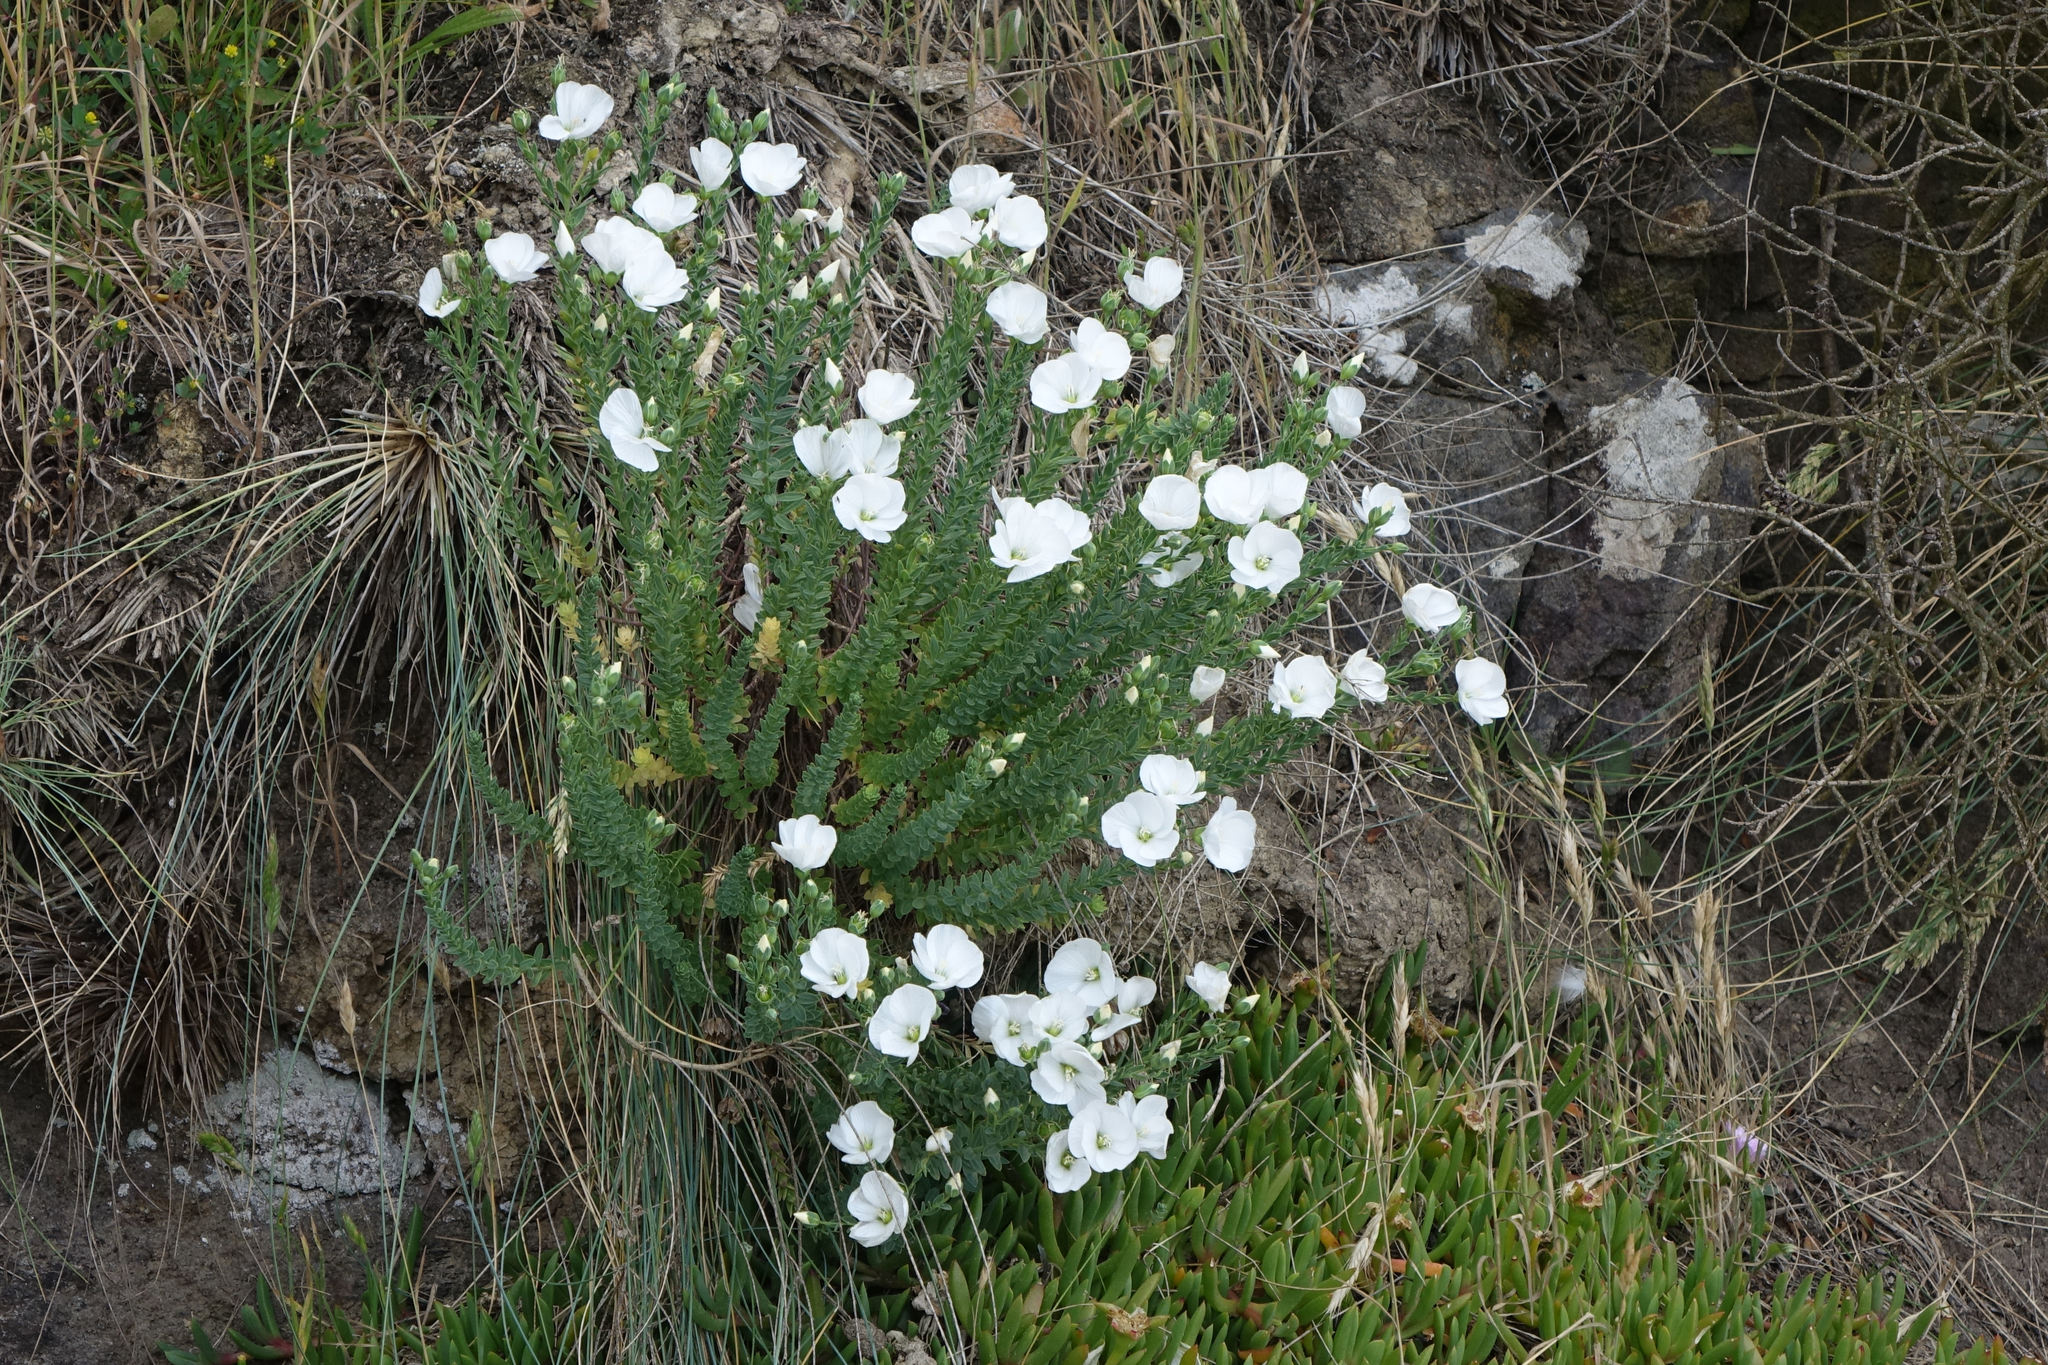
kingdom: Plantae
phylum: Tracheophyta
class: Magnoliopsida
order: Malpighiales
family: Linaceae
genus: Linum
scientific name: Linum monogynum
